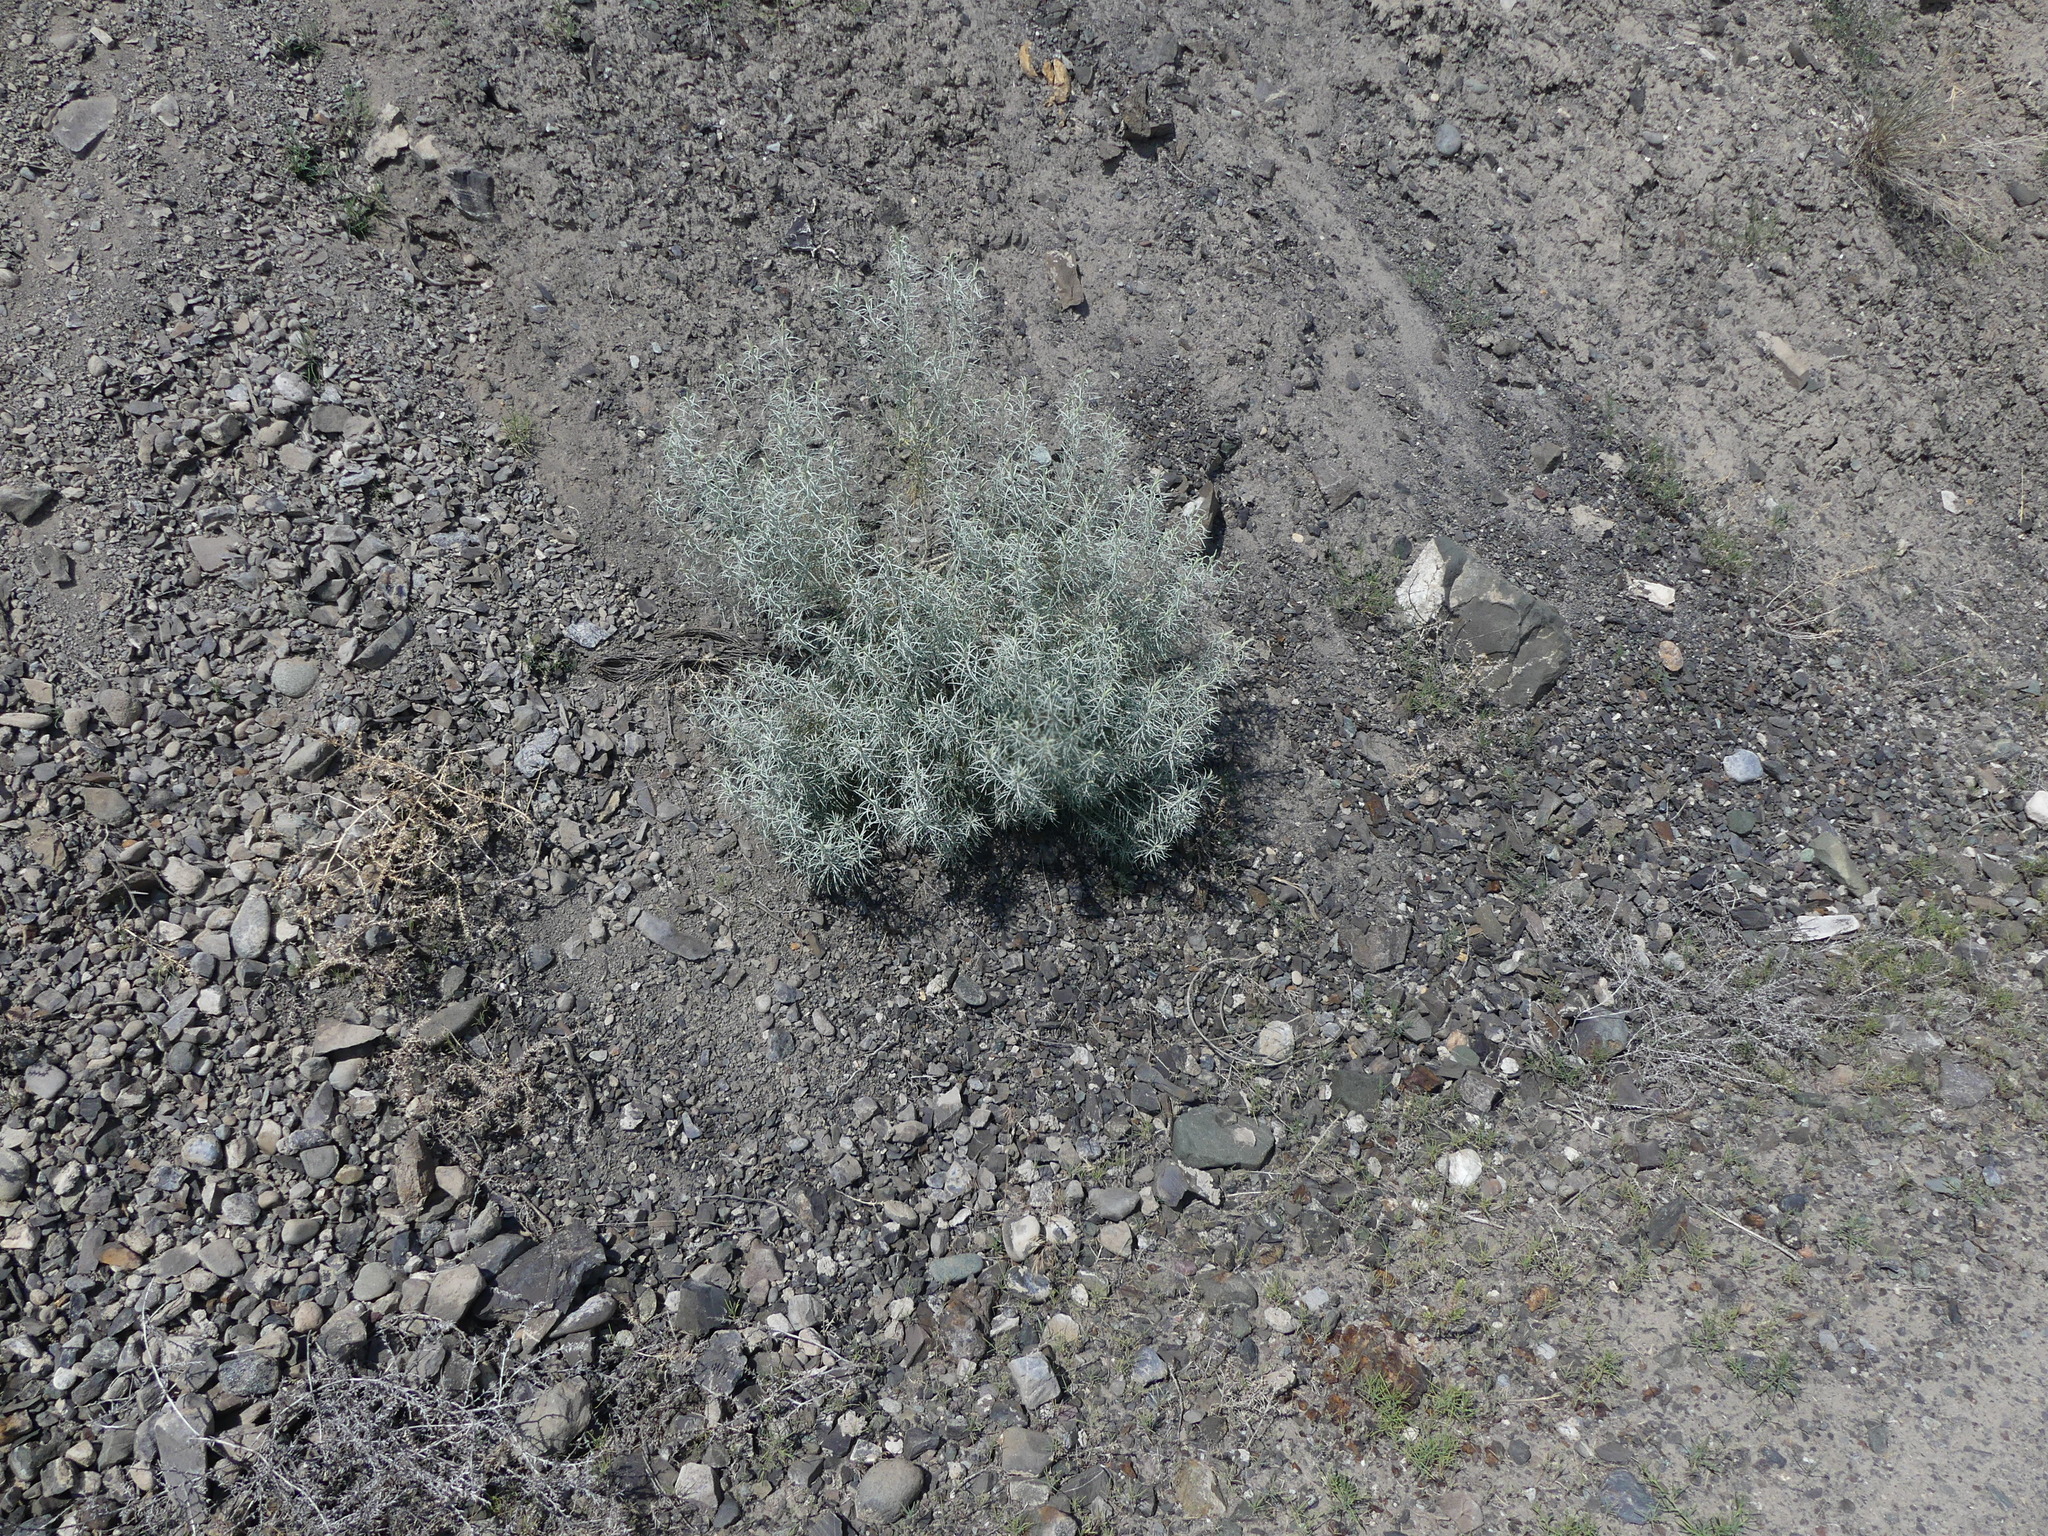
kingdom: Plantae
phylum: Tracheophyta
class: Magnoliopsida
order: Asterales
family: Asteraceae
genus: Ericameria
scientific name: Ericameria nauseosa
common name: Rubber rabbitbrush
